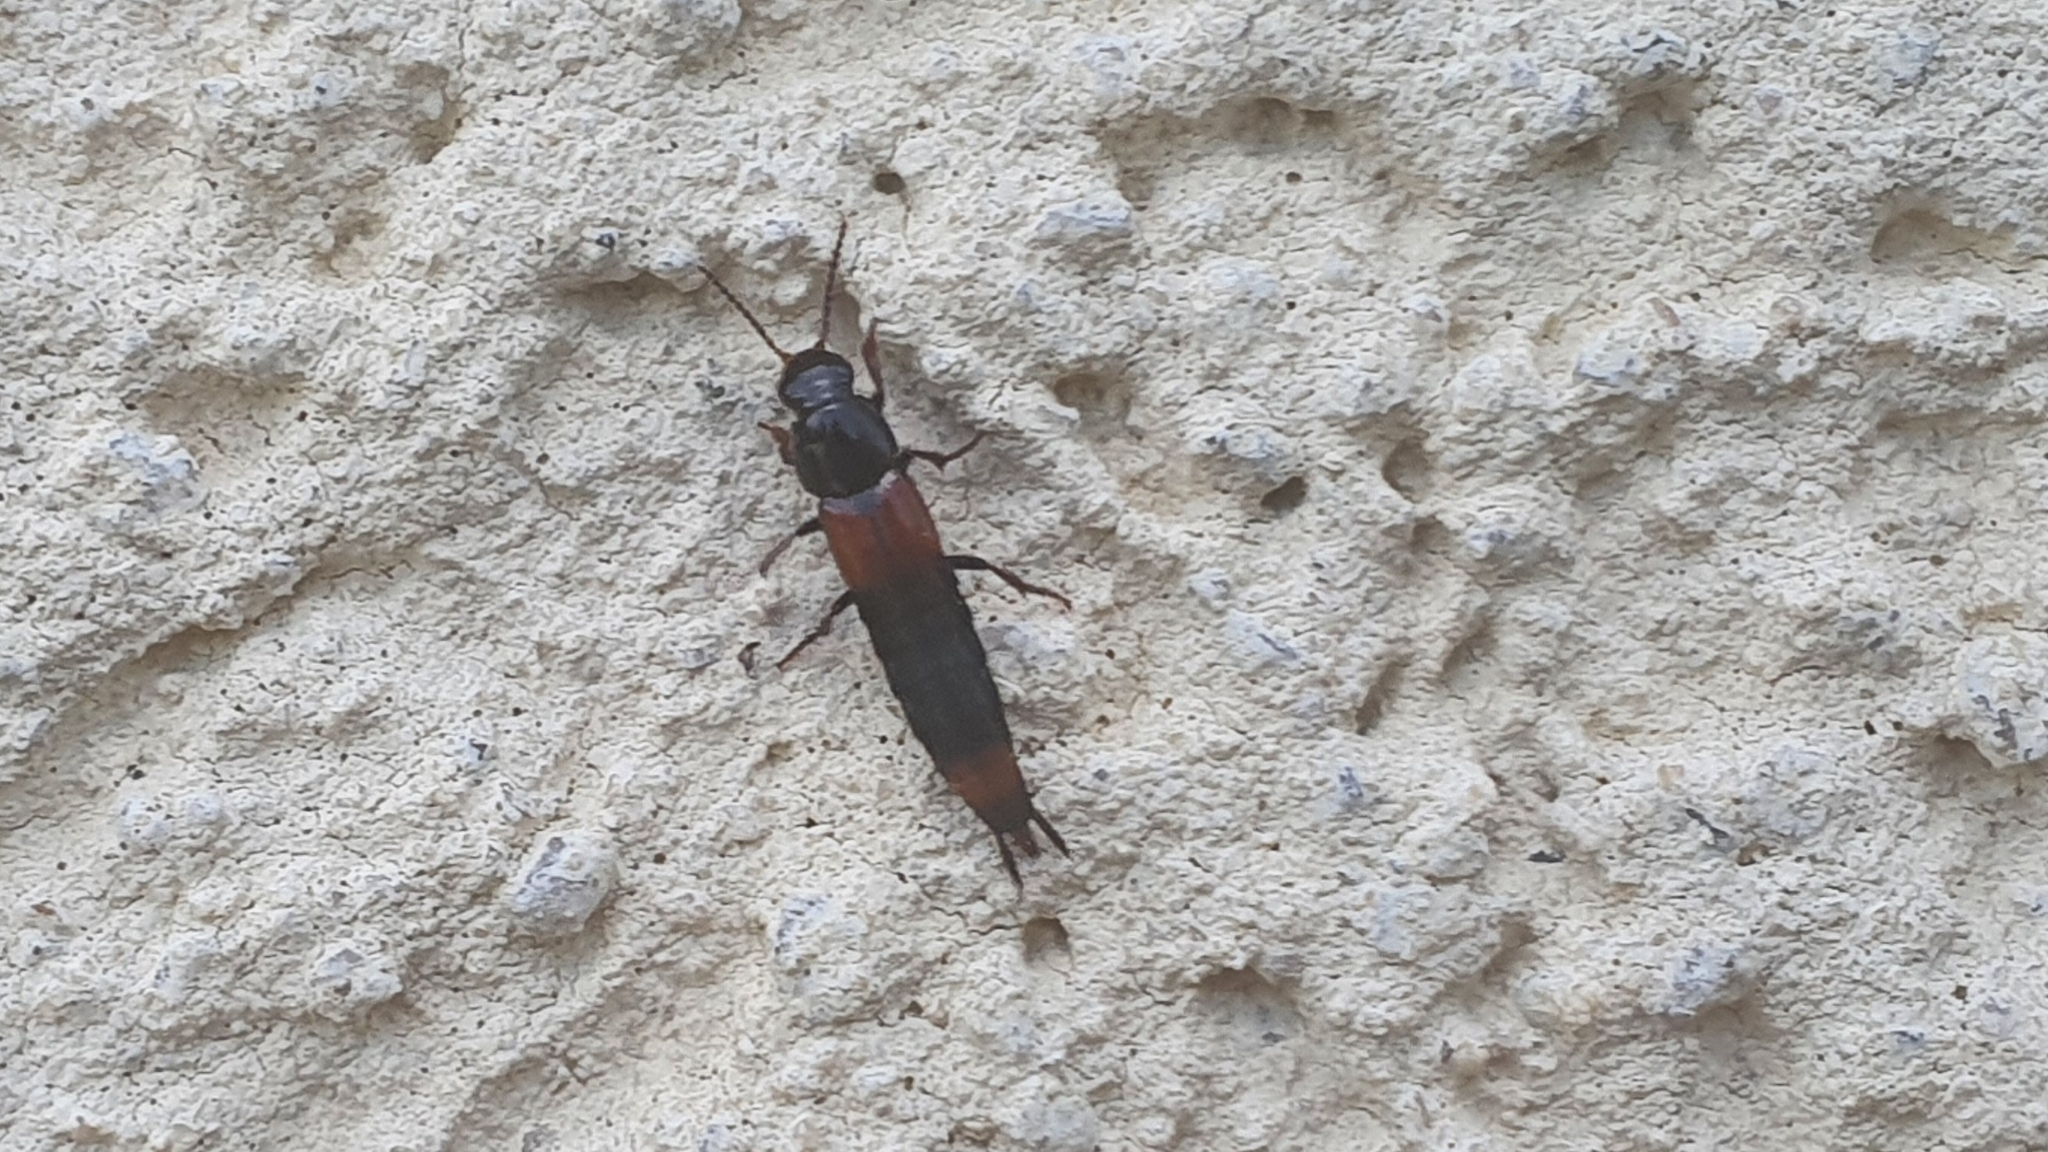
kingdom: Animalia
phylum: Arthropoda
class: Insecta
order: Coleoptera
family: Staphylinidae
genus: Astrapaeus
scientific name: Astrapaeus ulmi
